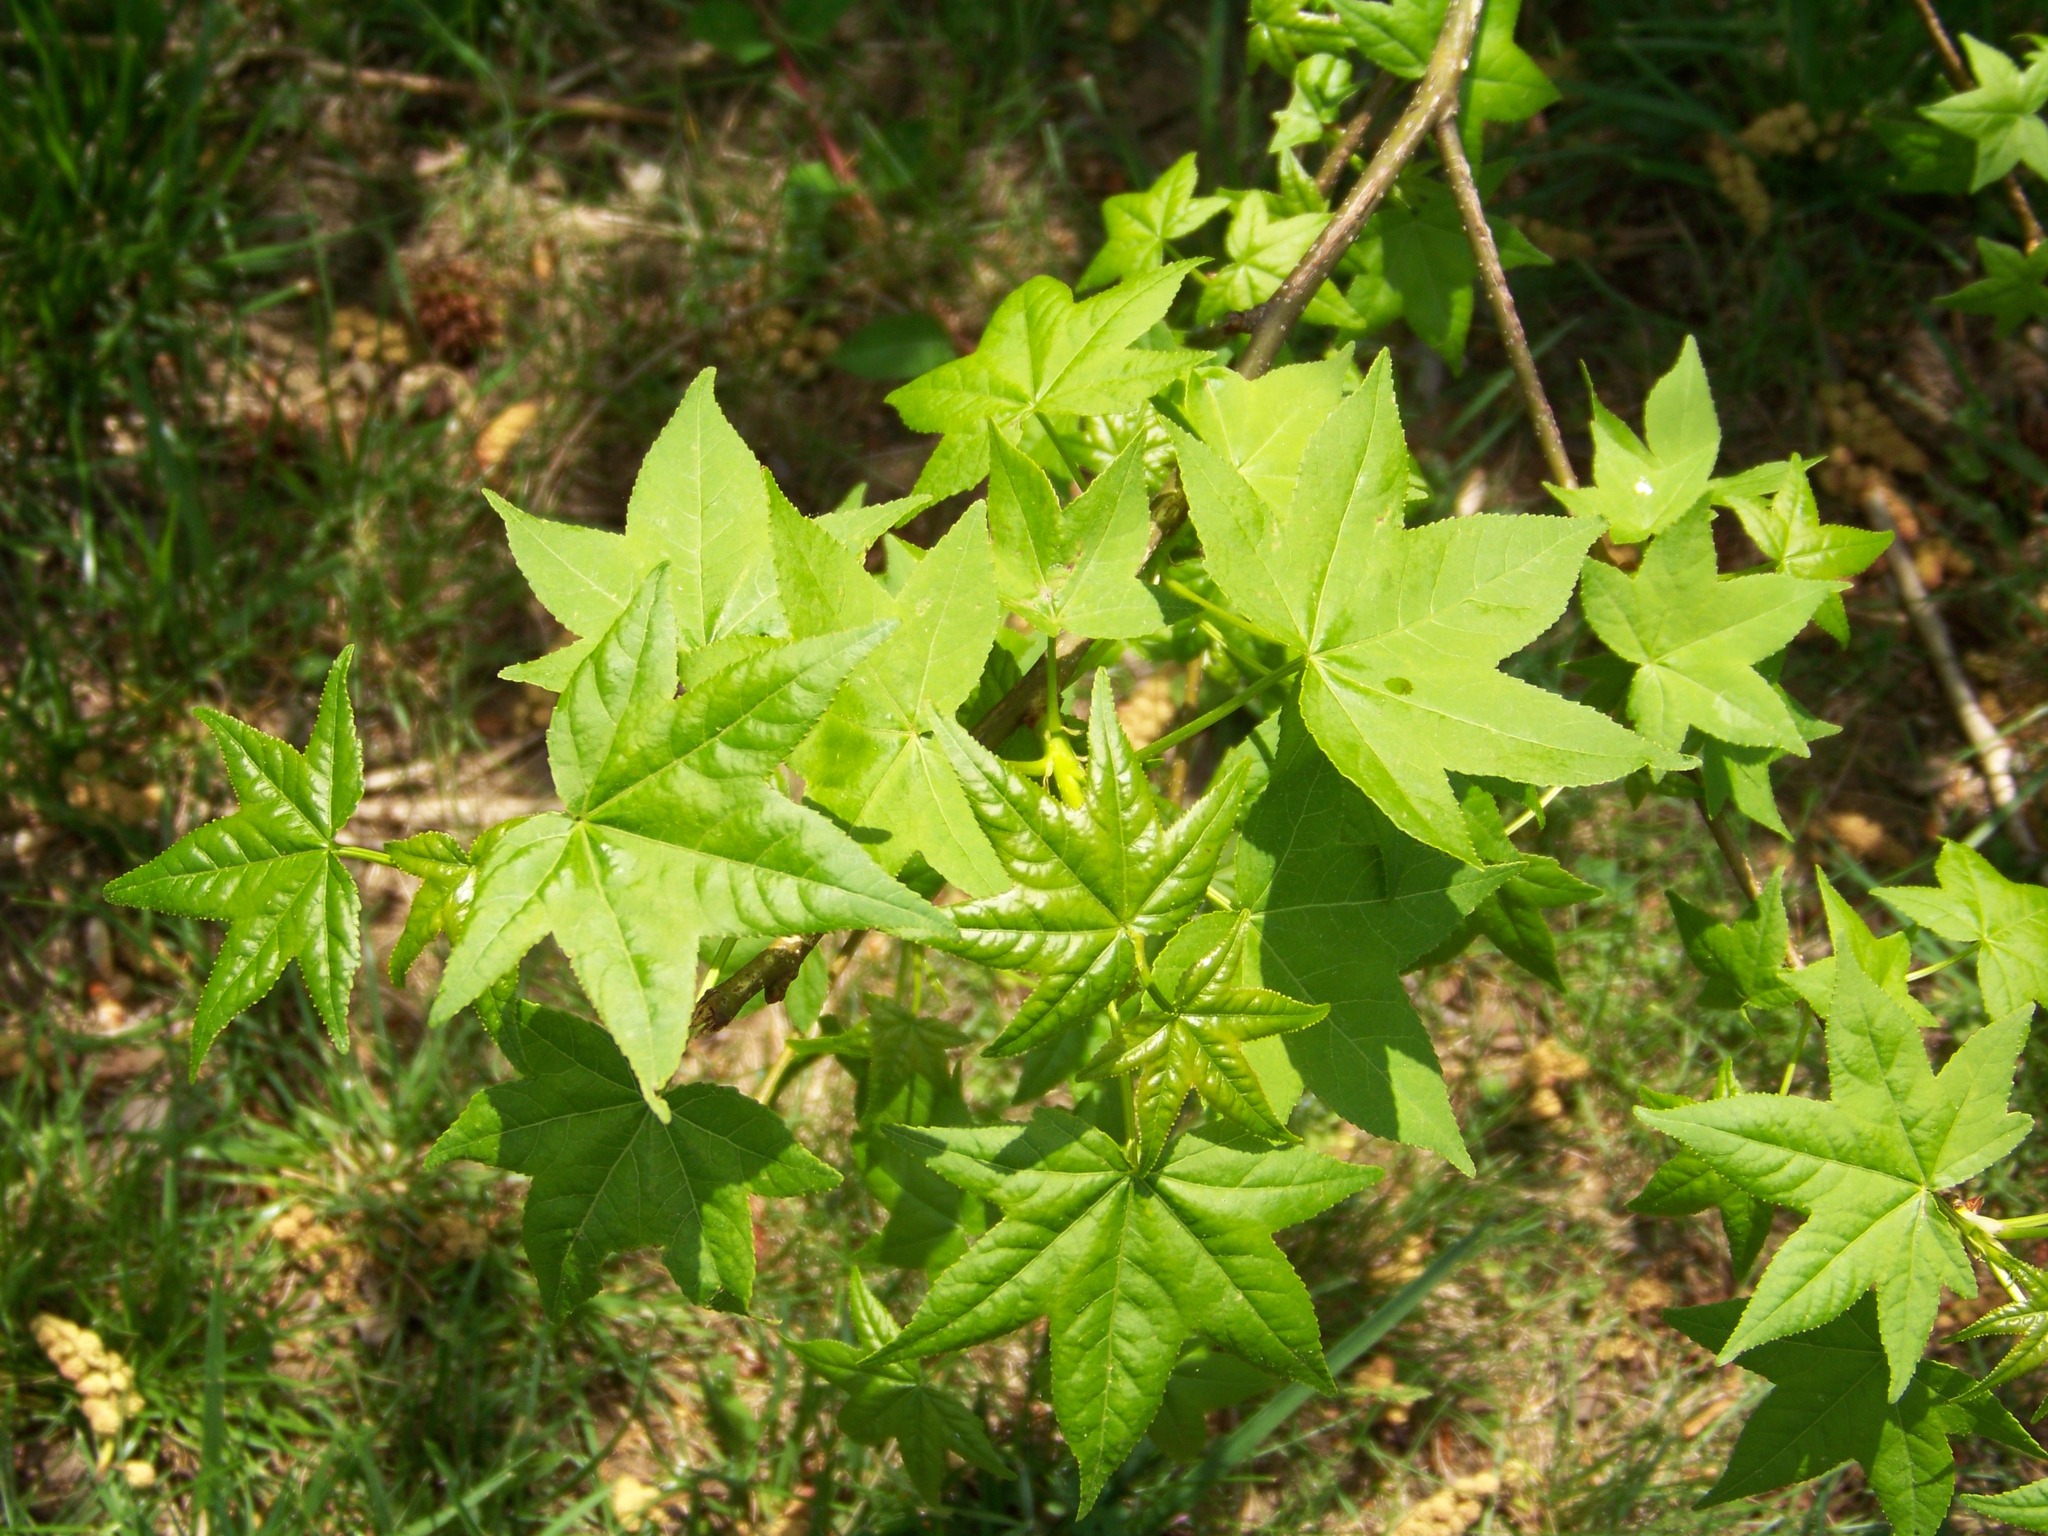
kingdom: Plantae
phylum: Tracheophyta
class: Magnoliopsida
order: Saxifragales
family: Altingiaceae
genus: Liquidambar
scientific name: Liquidambar styraciflua
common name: Sweet gum
